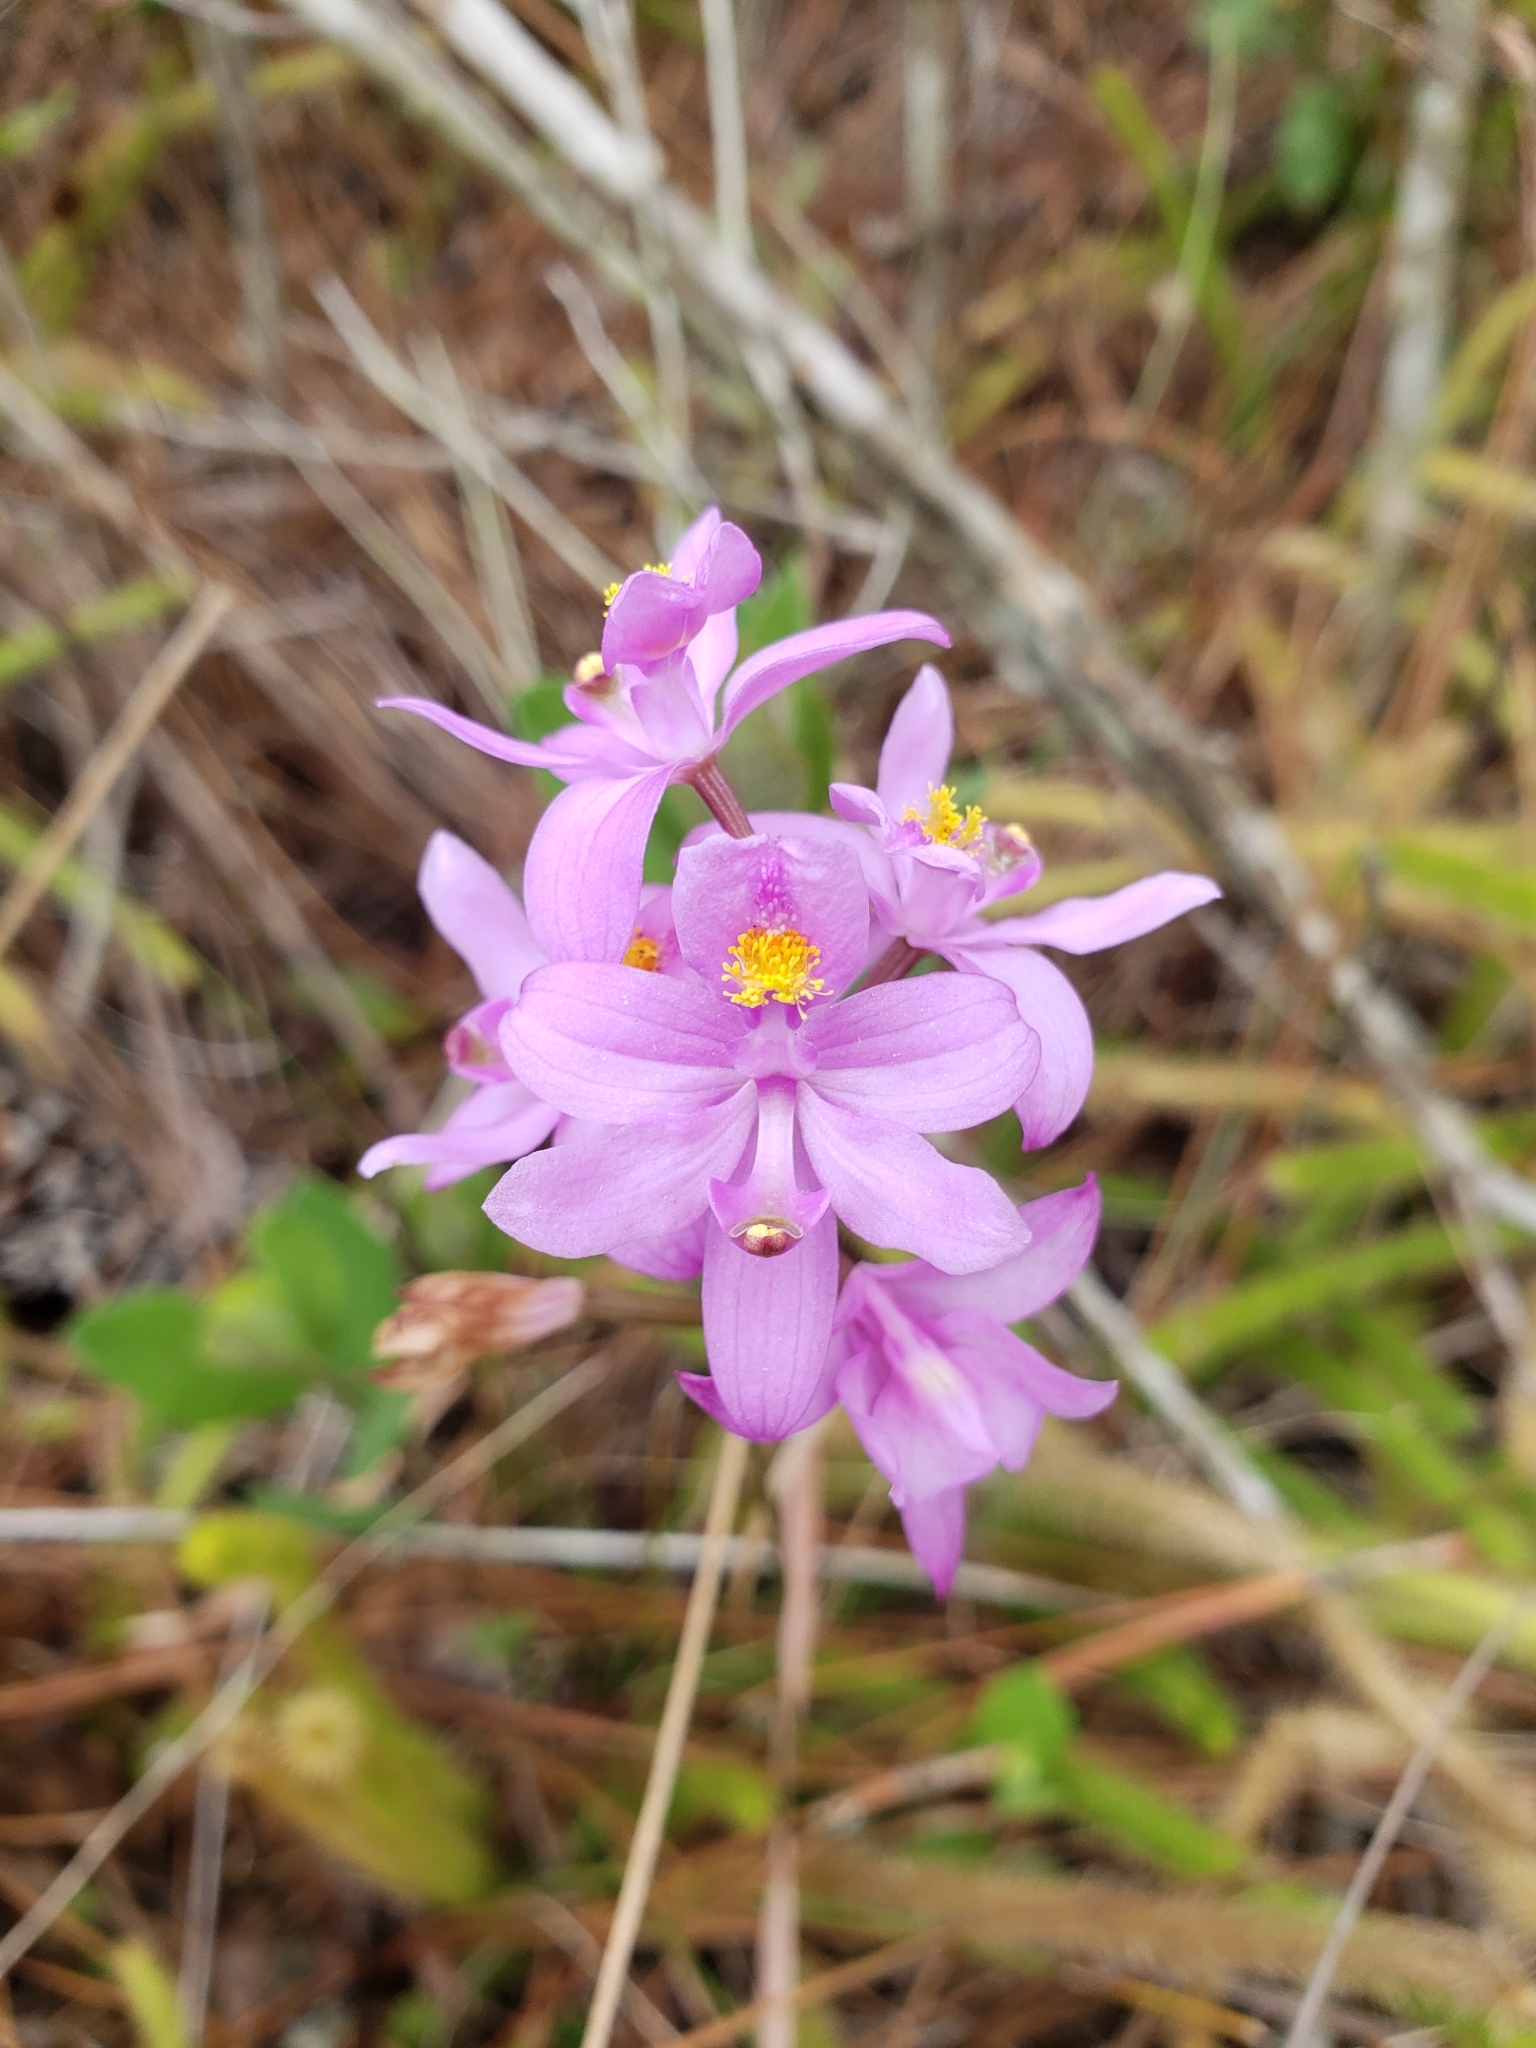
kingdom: Plantae
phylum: Tracheophyta
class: Liliopsida
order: Asparagales
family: Orchidaceae
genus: Calopogon
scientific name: Calopogon barbatus
